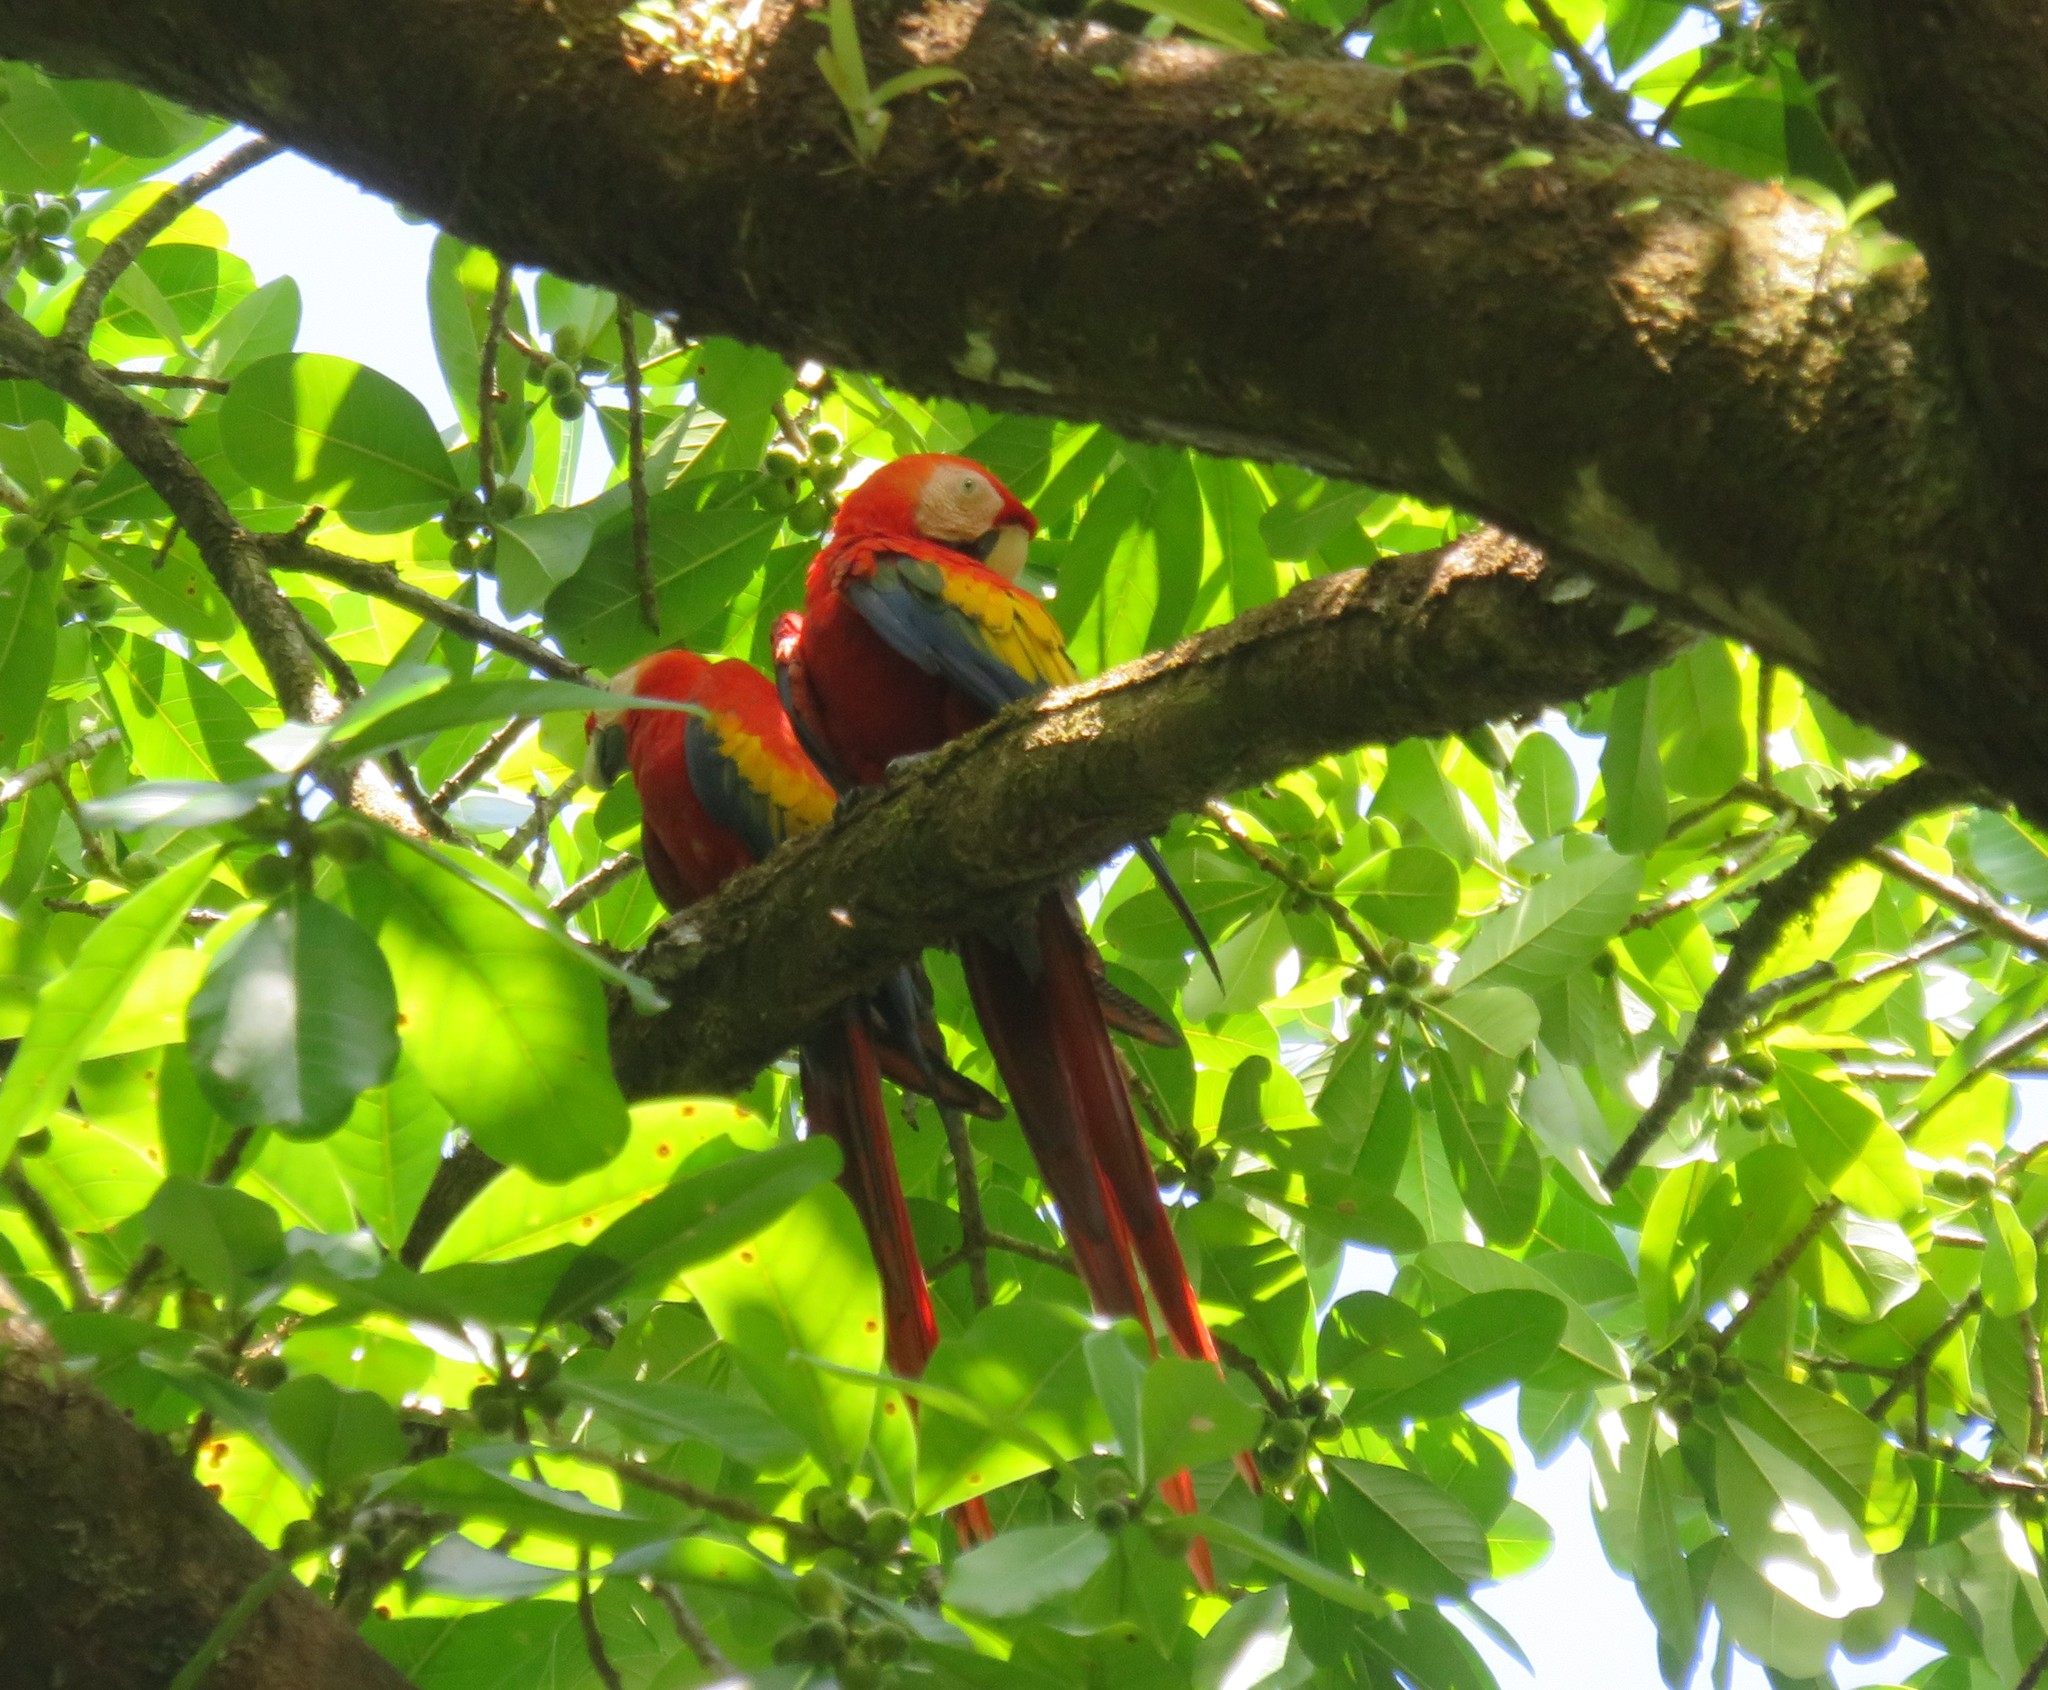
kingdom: Animalia
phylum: Chordata
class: Aves
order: Psittaciformes
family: Psittacidae
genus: Ara
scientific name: Ara macao
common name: Scarlet macaw
